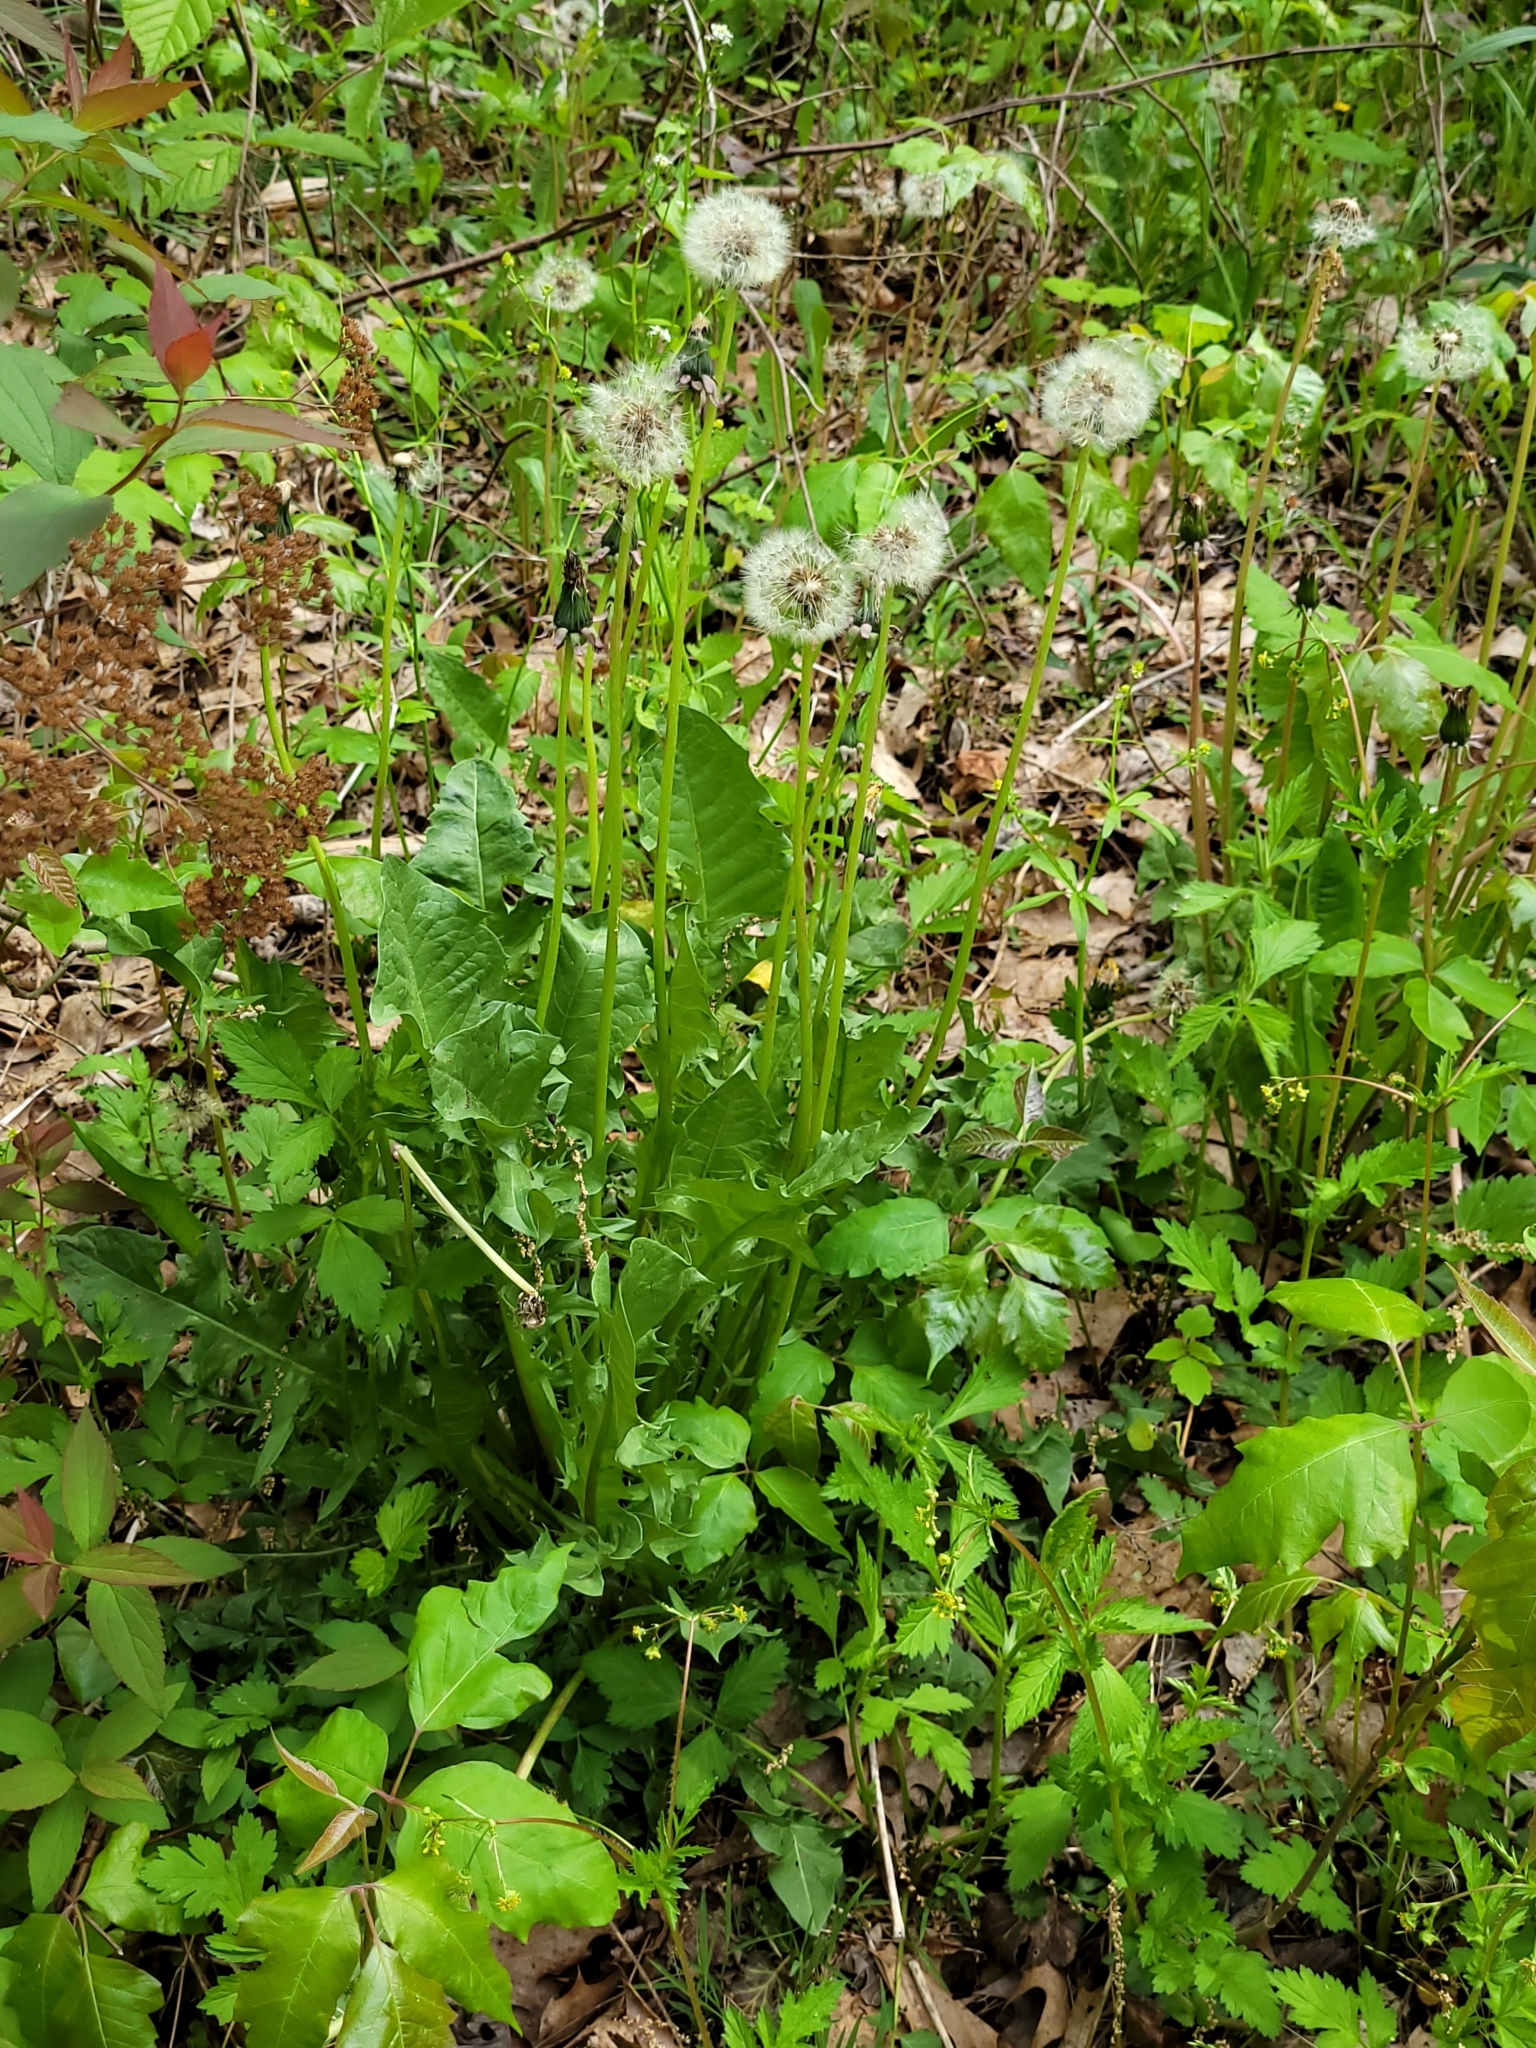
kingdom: Plantae
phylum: Tracheophyta
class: Magnoliopsida
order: Asterales
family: Asteraceae
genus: Taraxacum
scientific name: Taraxacum officinale
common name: Common dandelion
